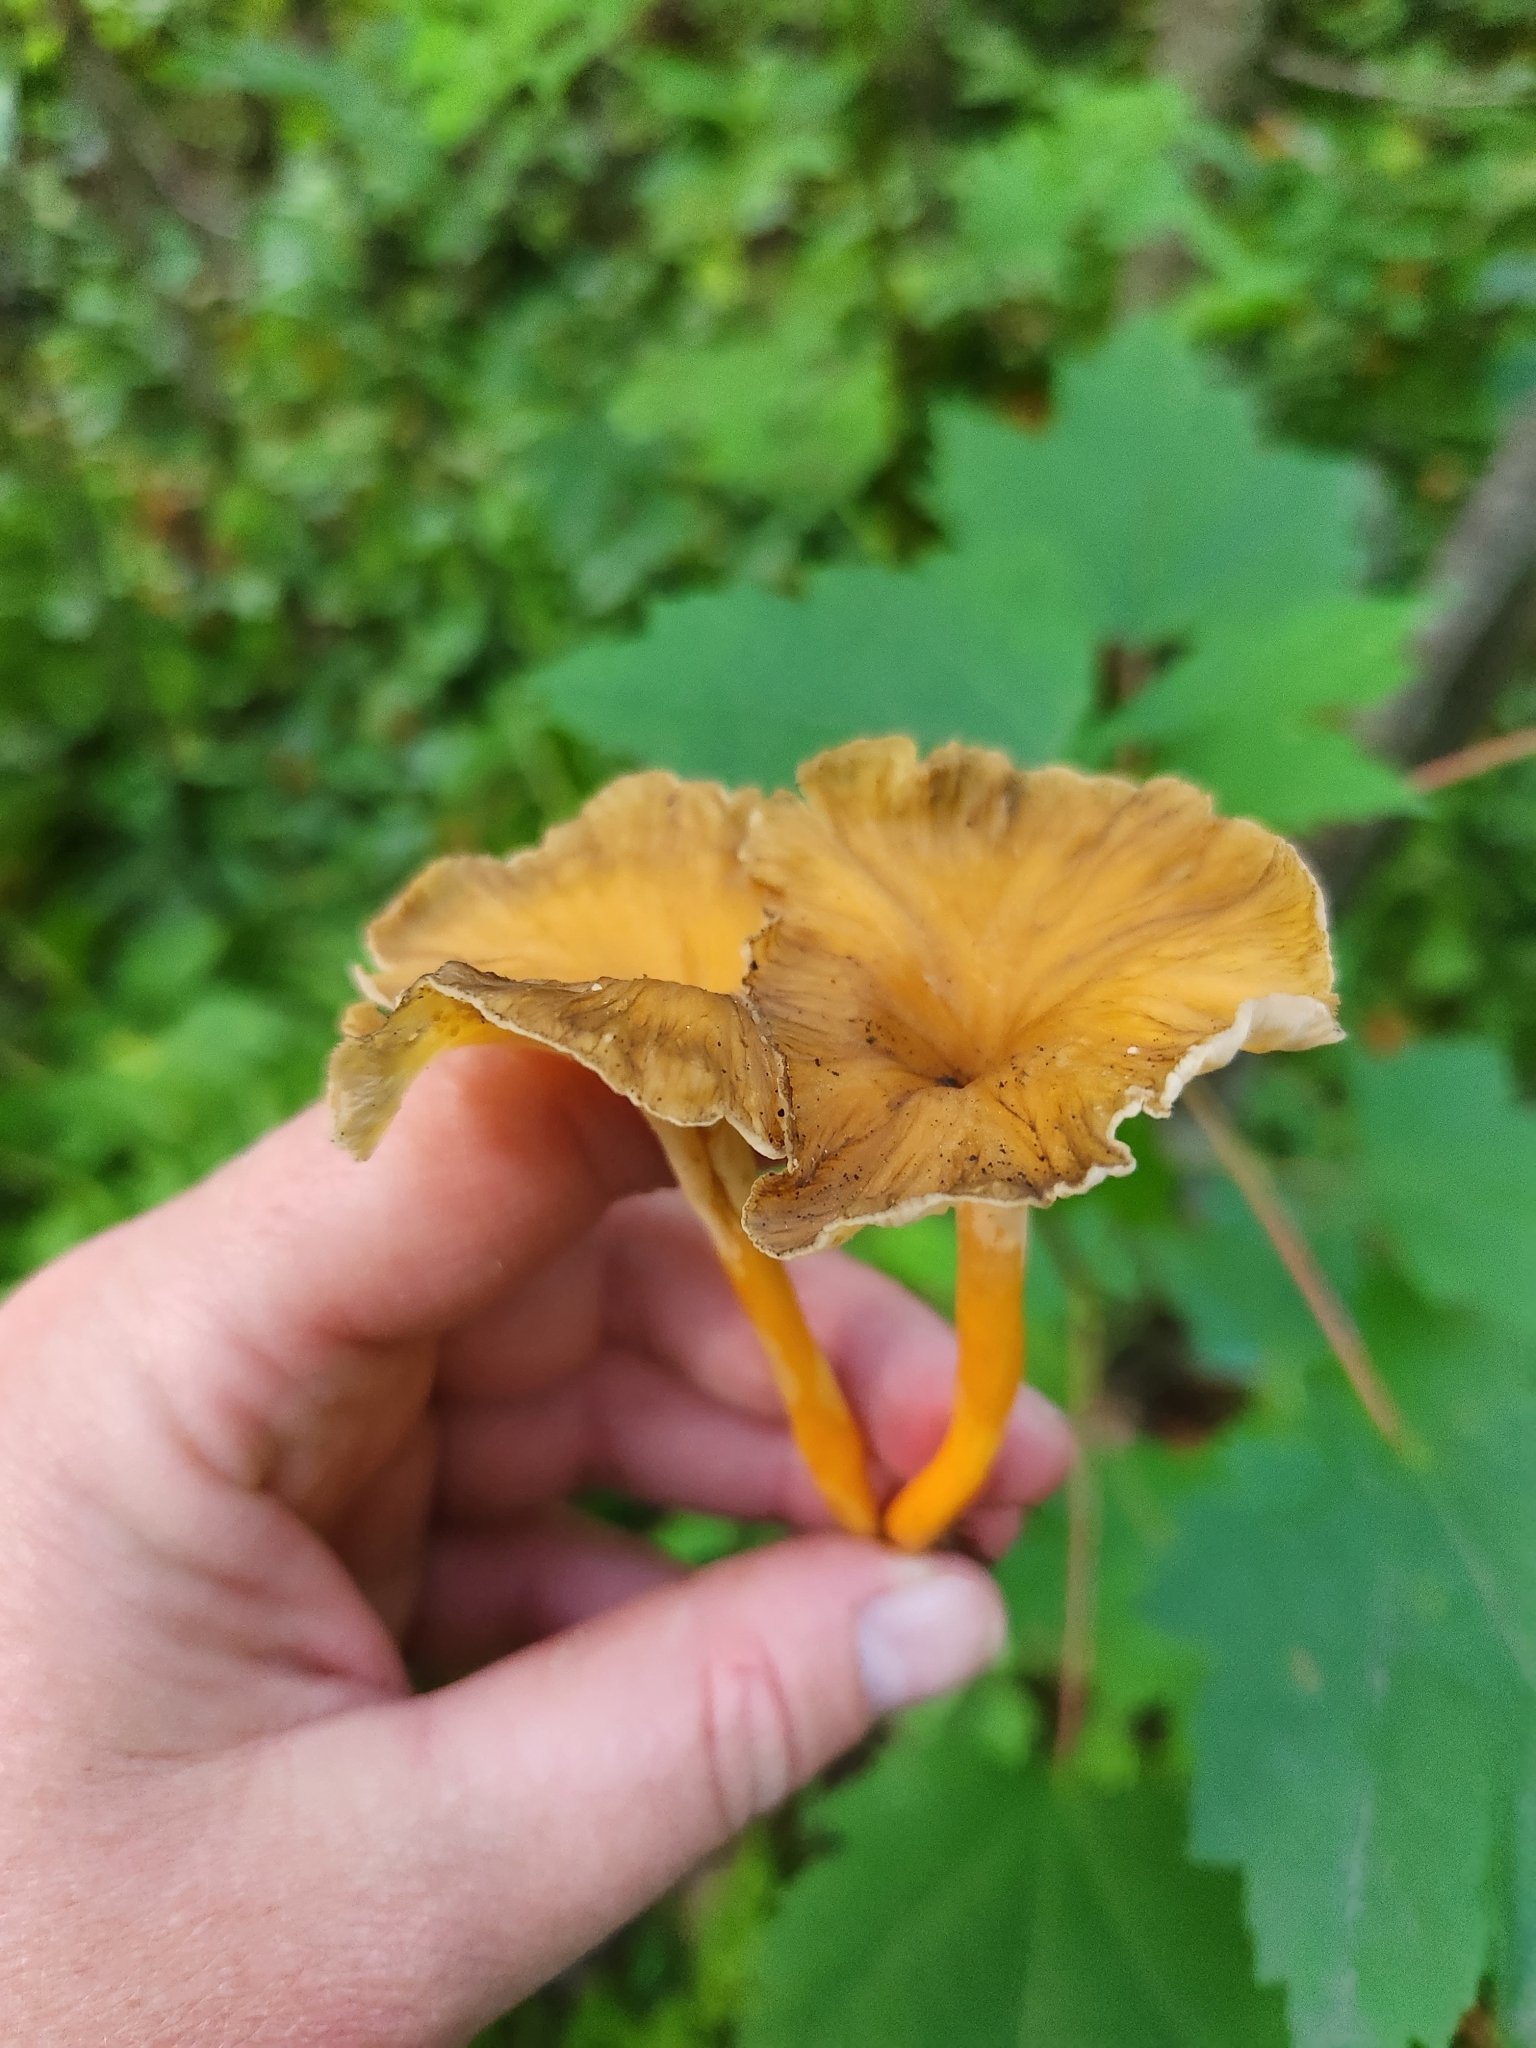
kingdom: Fungi
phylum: Basidiomycota
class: Agaricomycetes
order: Cantharellales
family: Hydnaceae
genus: Craterellus
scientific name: Craterellus tubaeformis
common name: Yellowfoot
